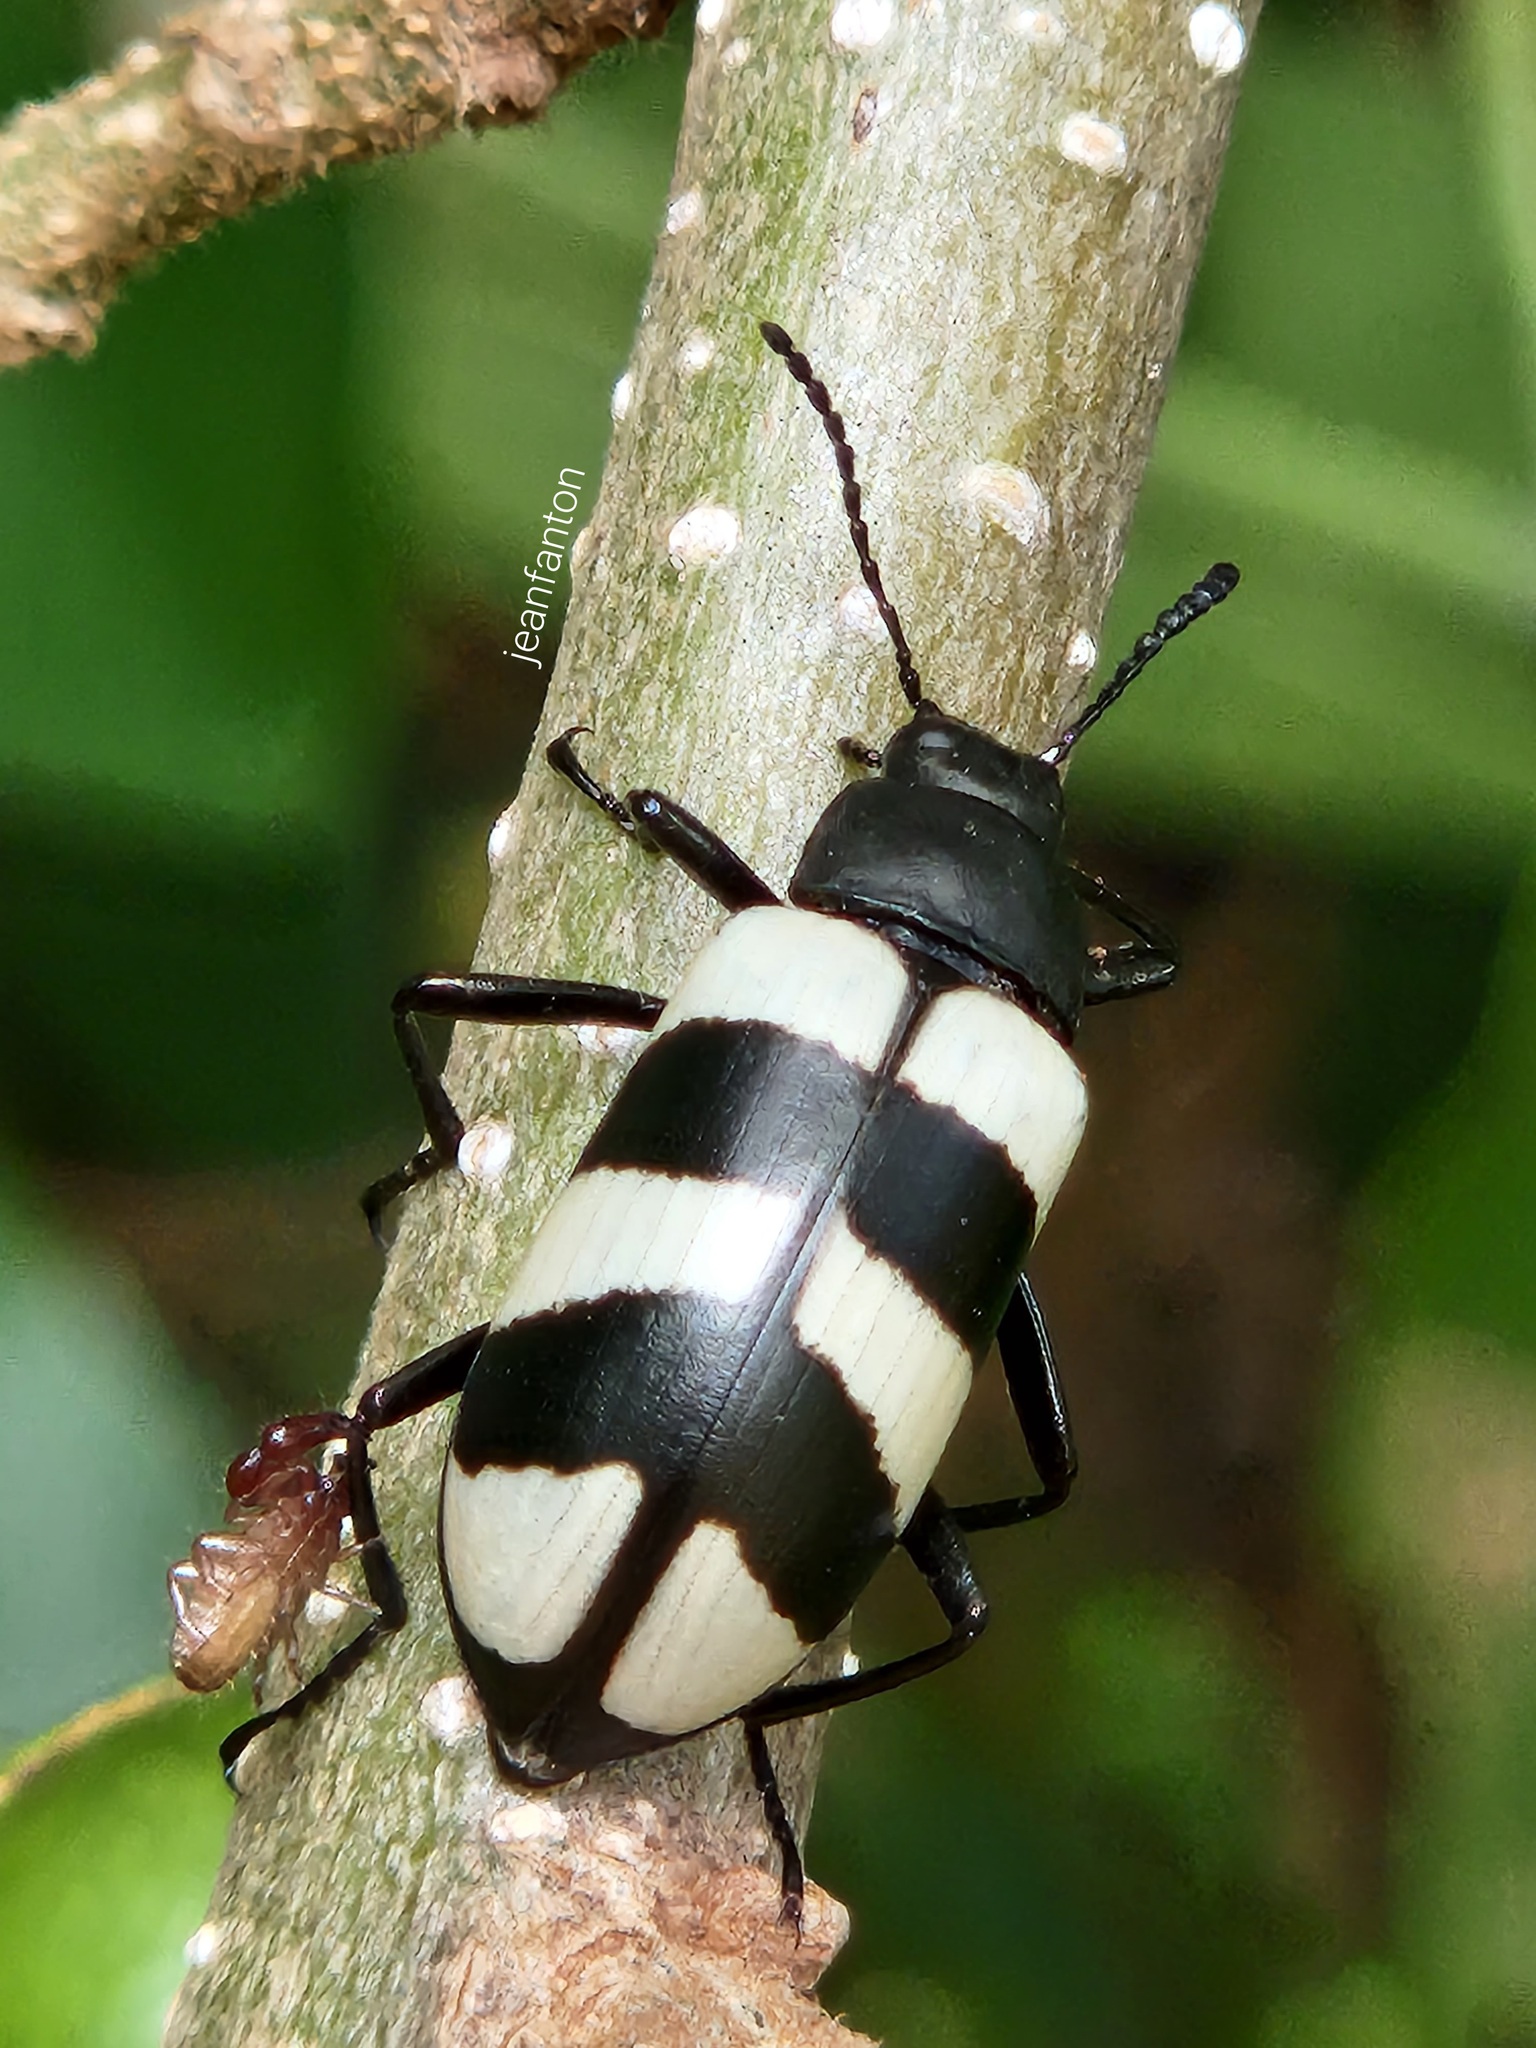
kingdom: Animalia
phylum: Arthropoda
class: Insecta
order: Coleoptera
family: Tenebrionidae
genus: Poecilesthus
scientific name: Poecilesthus
